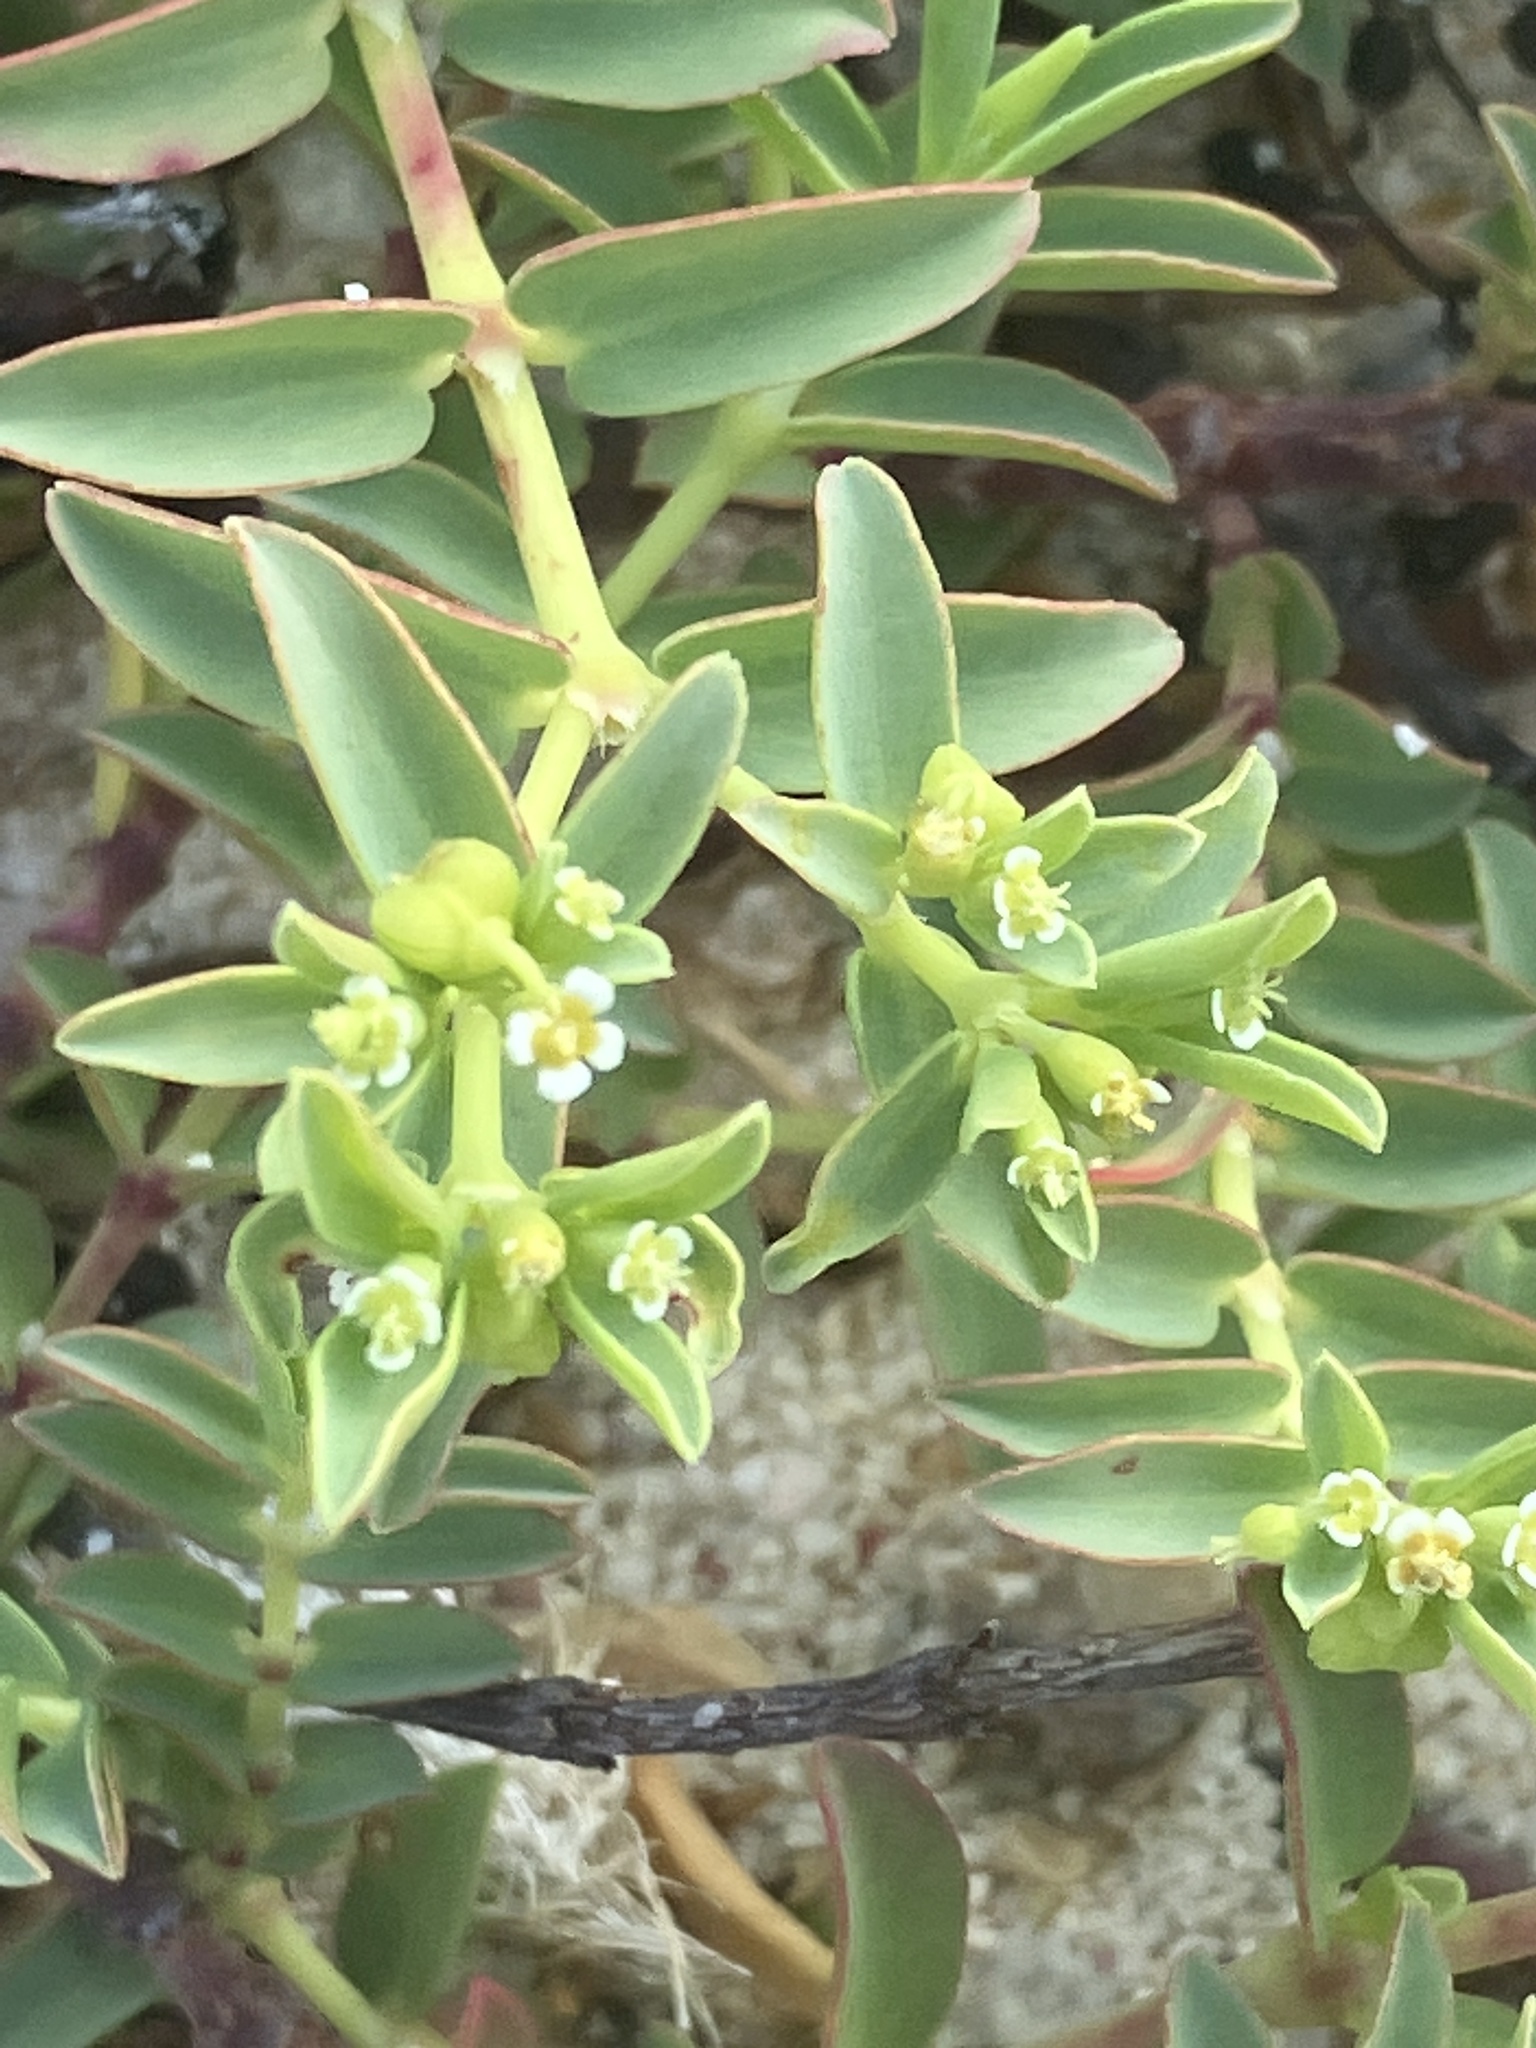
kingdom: Plantae
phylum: Tracheophyta
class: Magnoliopsida
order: Malpighiales
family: Euphorbiaceae
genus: Euphorbia
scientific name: Euphorbia mesembryanthemifolia
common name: Coastal beach sandmat
